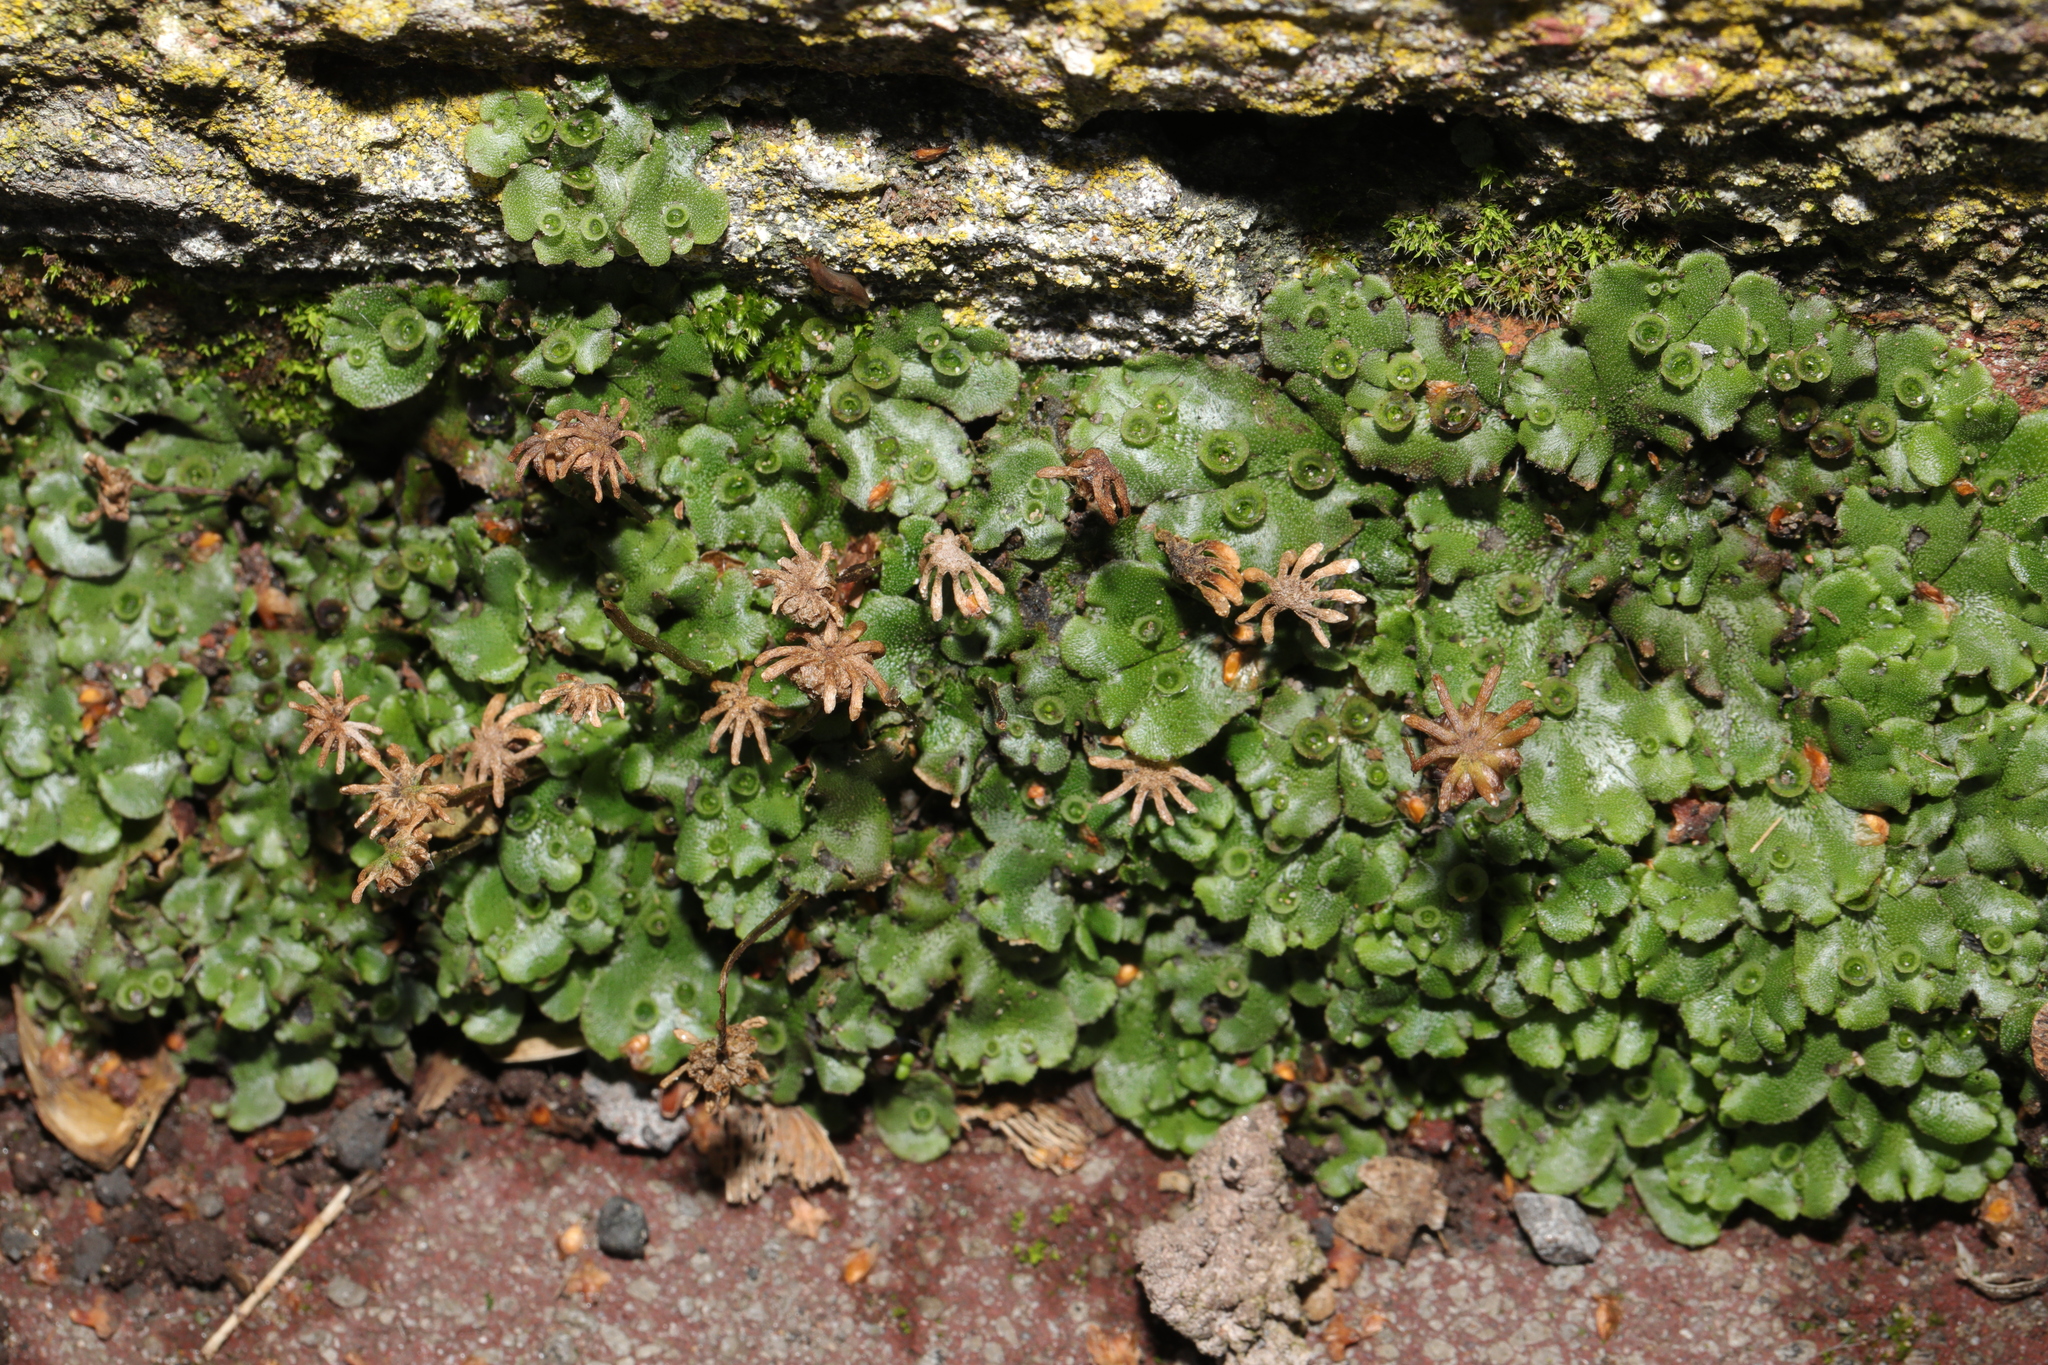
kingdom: Plantae
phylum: Marchantiophyta
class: Marchantiopsida
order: Marchantiales
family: Marchantiaceae
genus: Marchantia
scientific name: Marchantia polymorpha
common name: Common liverwort
